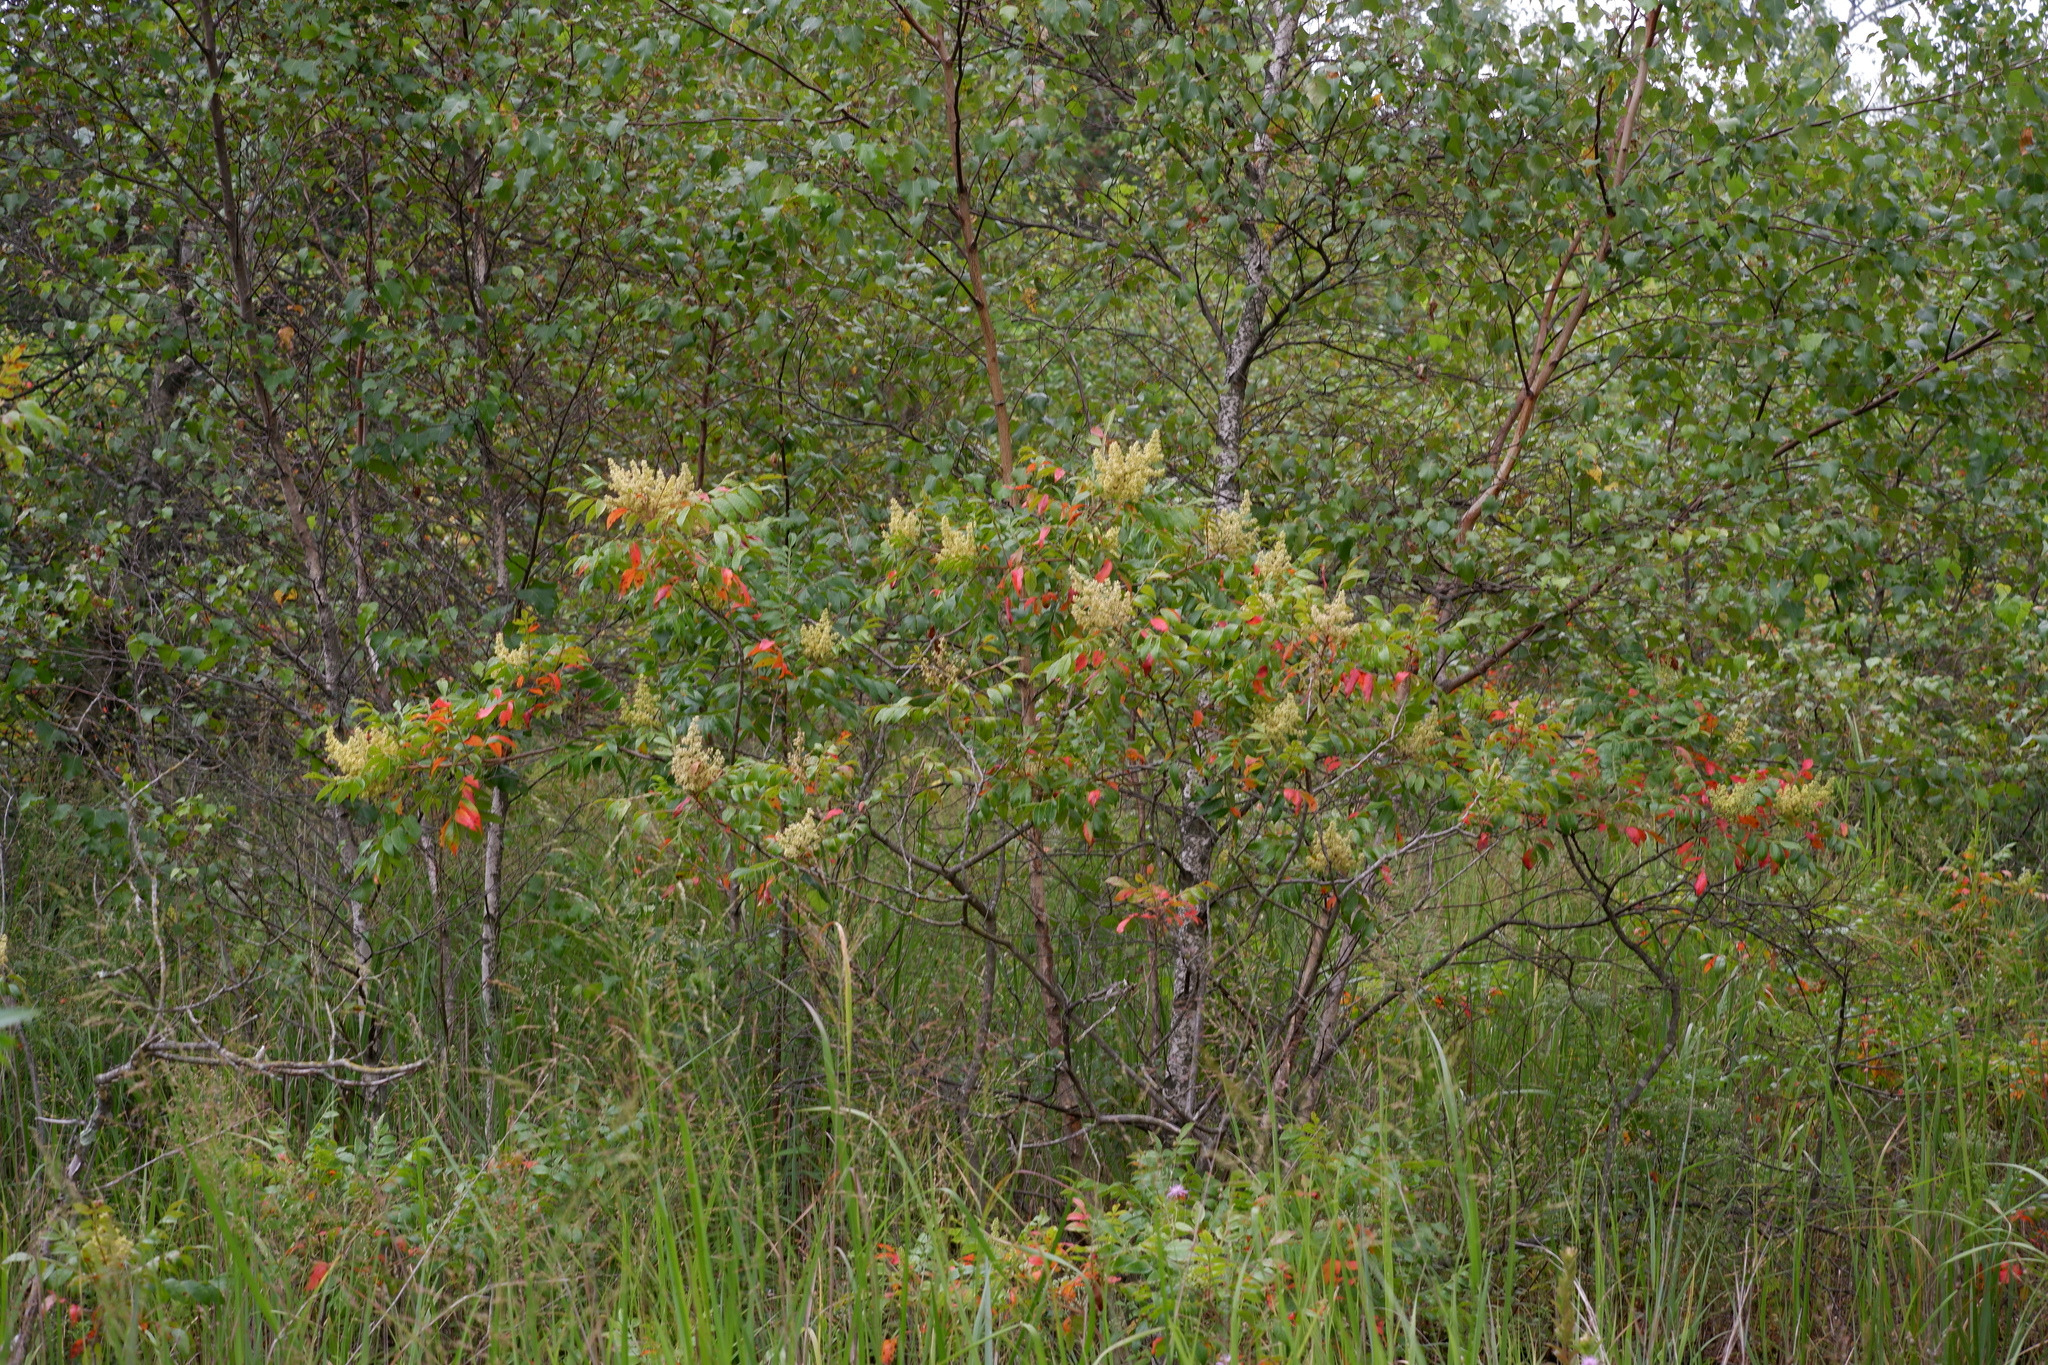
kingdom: Plantae
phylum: Tracheophyta
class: Magnoliopsida
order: Sapindales
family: Anacardiaceae
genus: Rhus
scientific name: Rhus copallina
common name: Shining sumac
